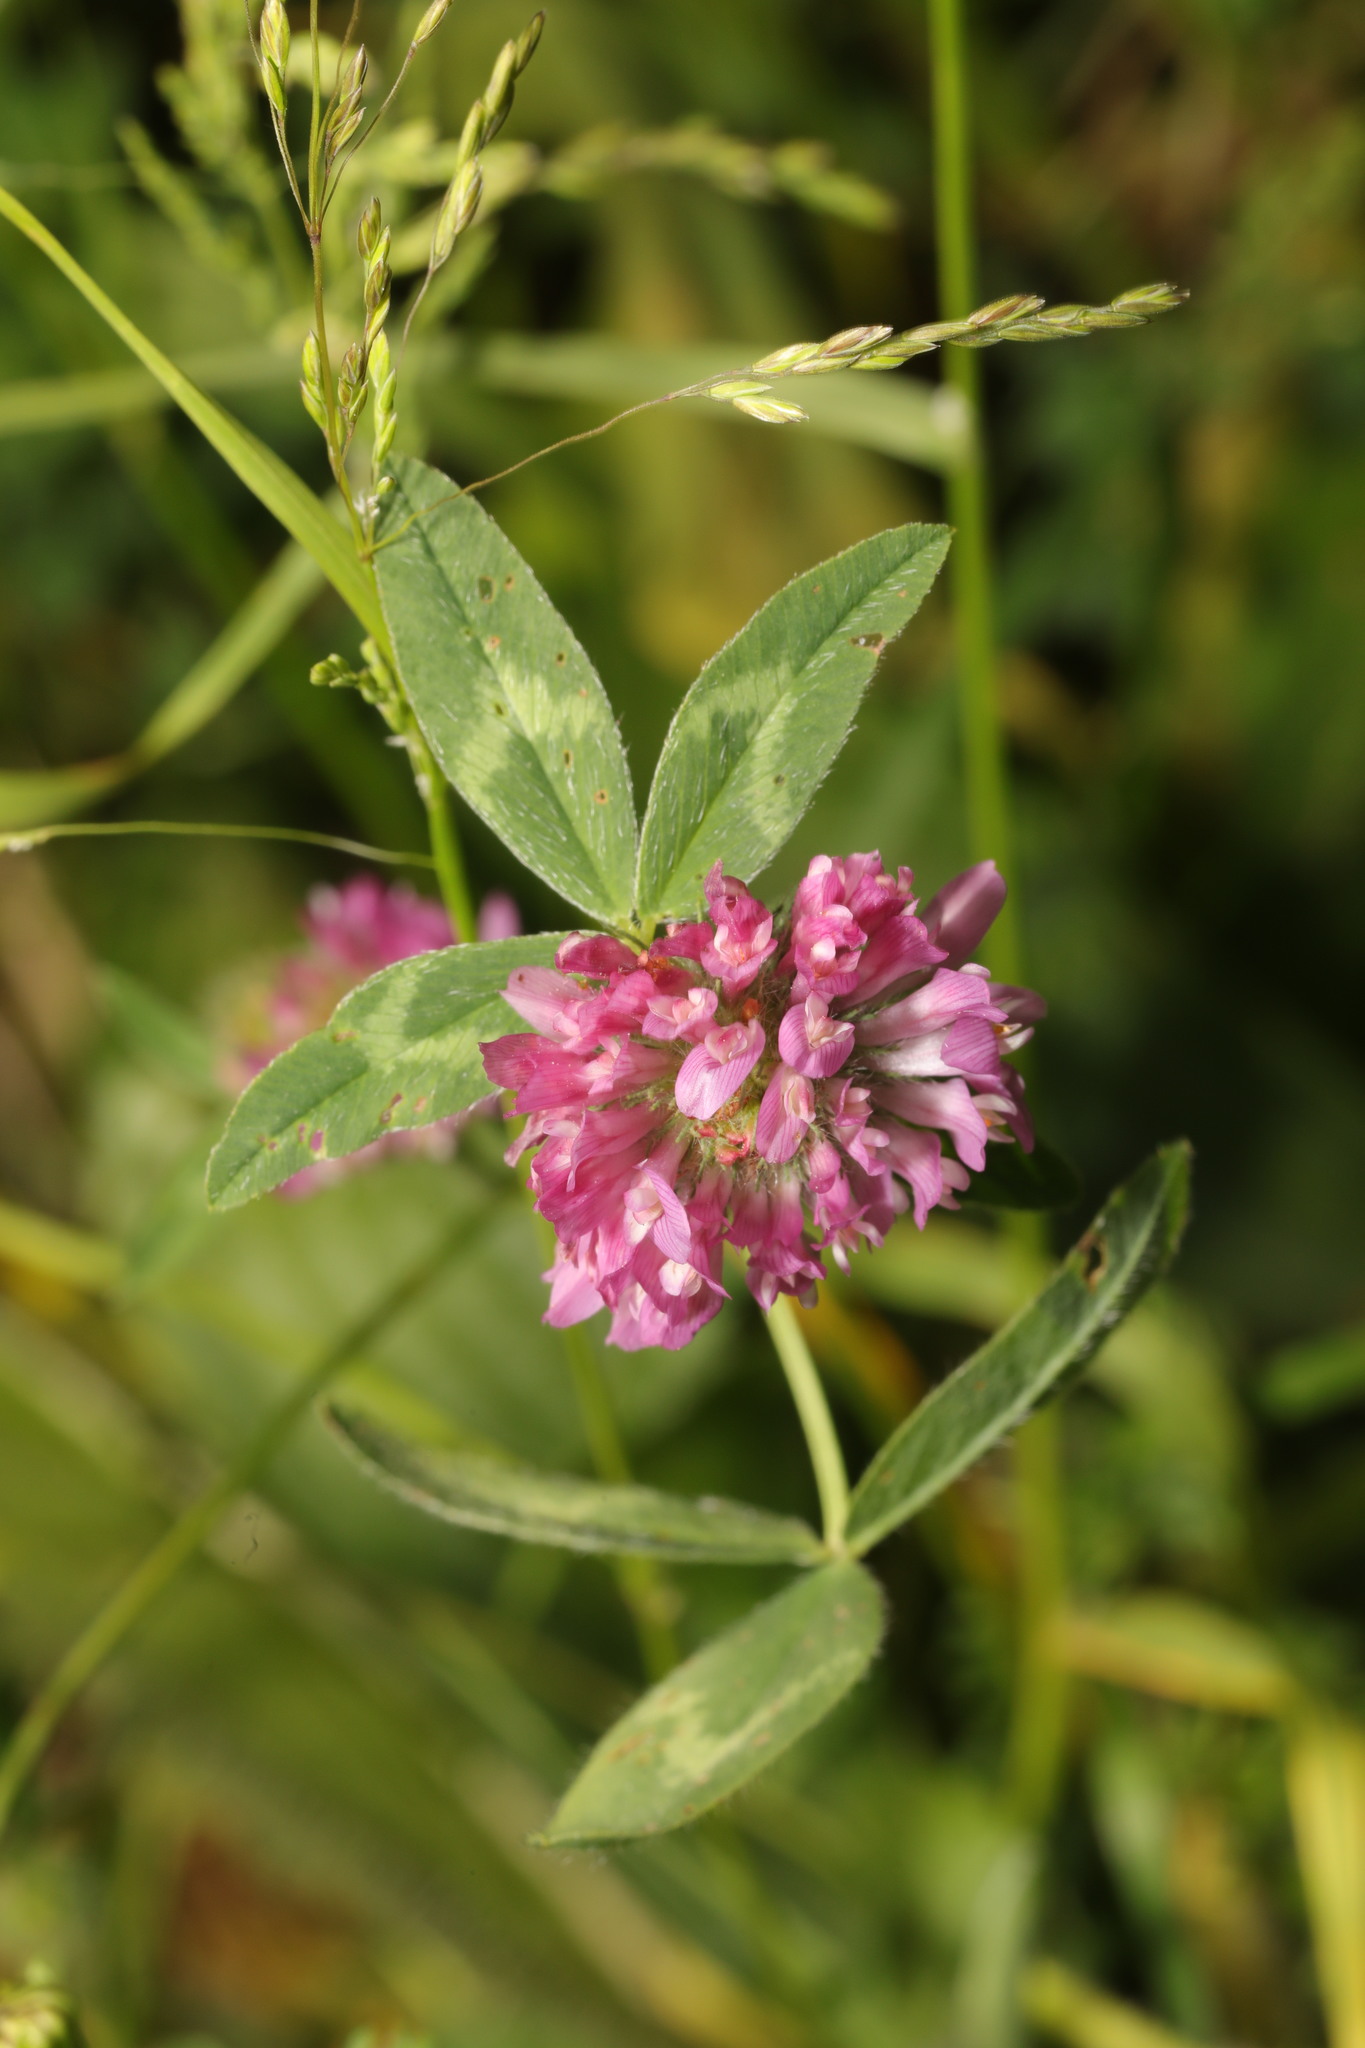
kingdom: Plantae
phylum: Tracheophyta
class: Magnoliopsida
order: Fabales
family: Fabaceae
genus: Trifolium
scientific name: Trifolium pratense
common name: Red clover
